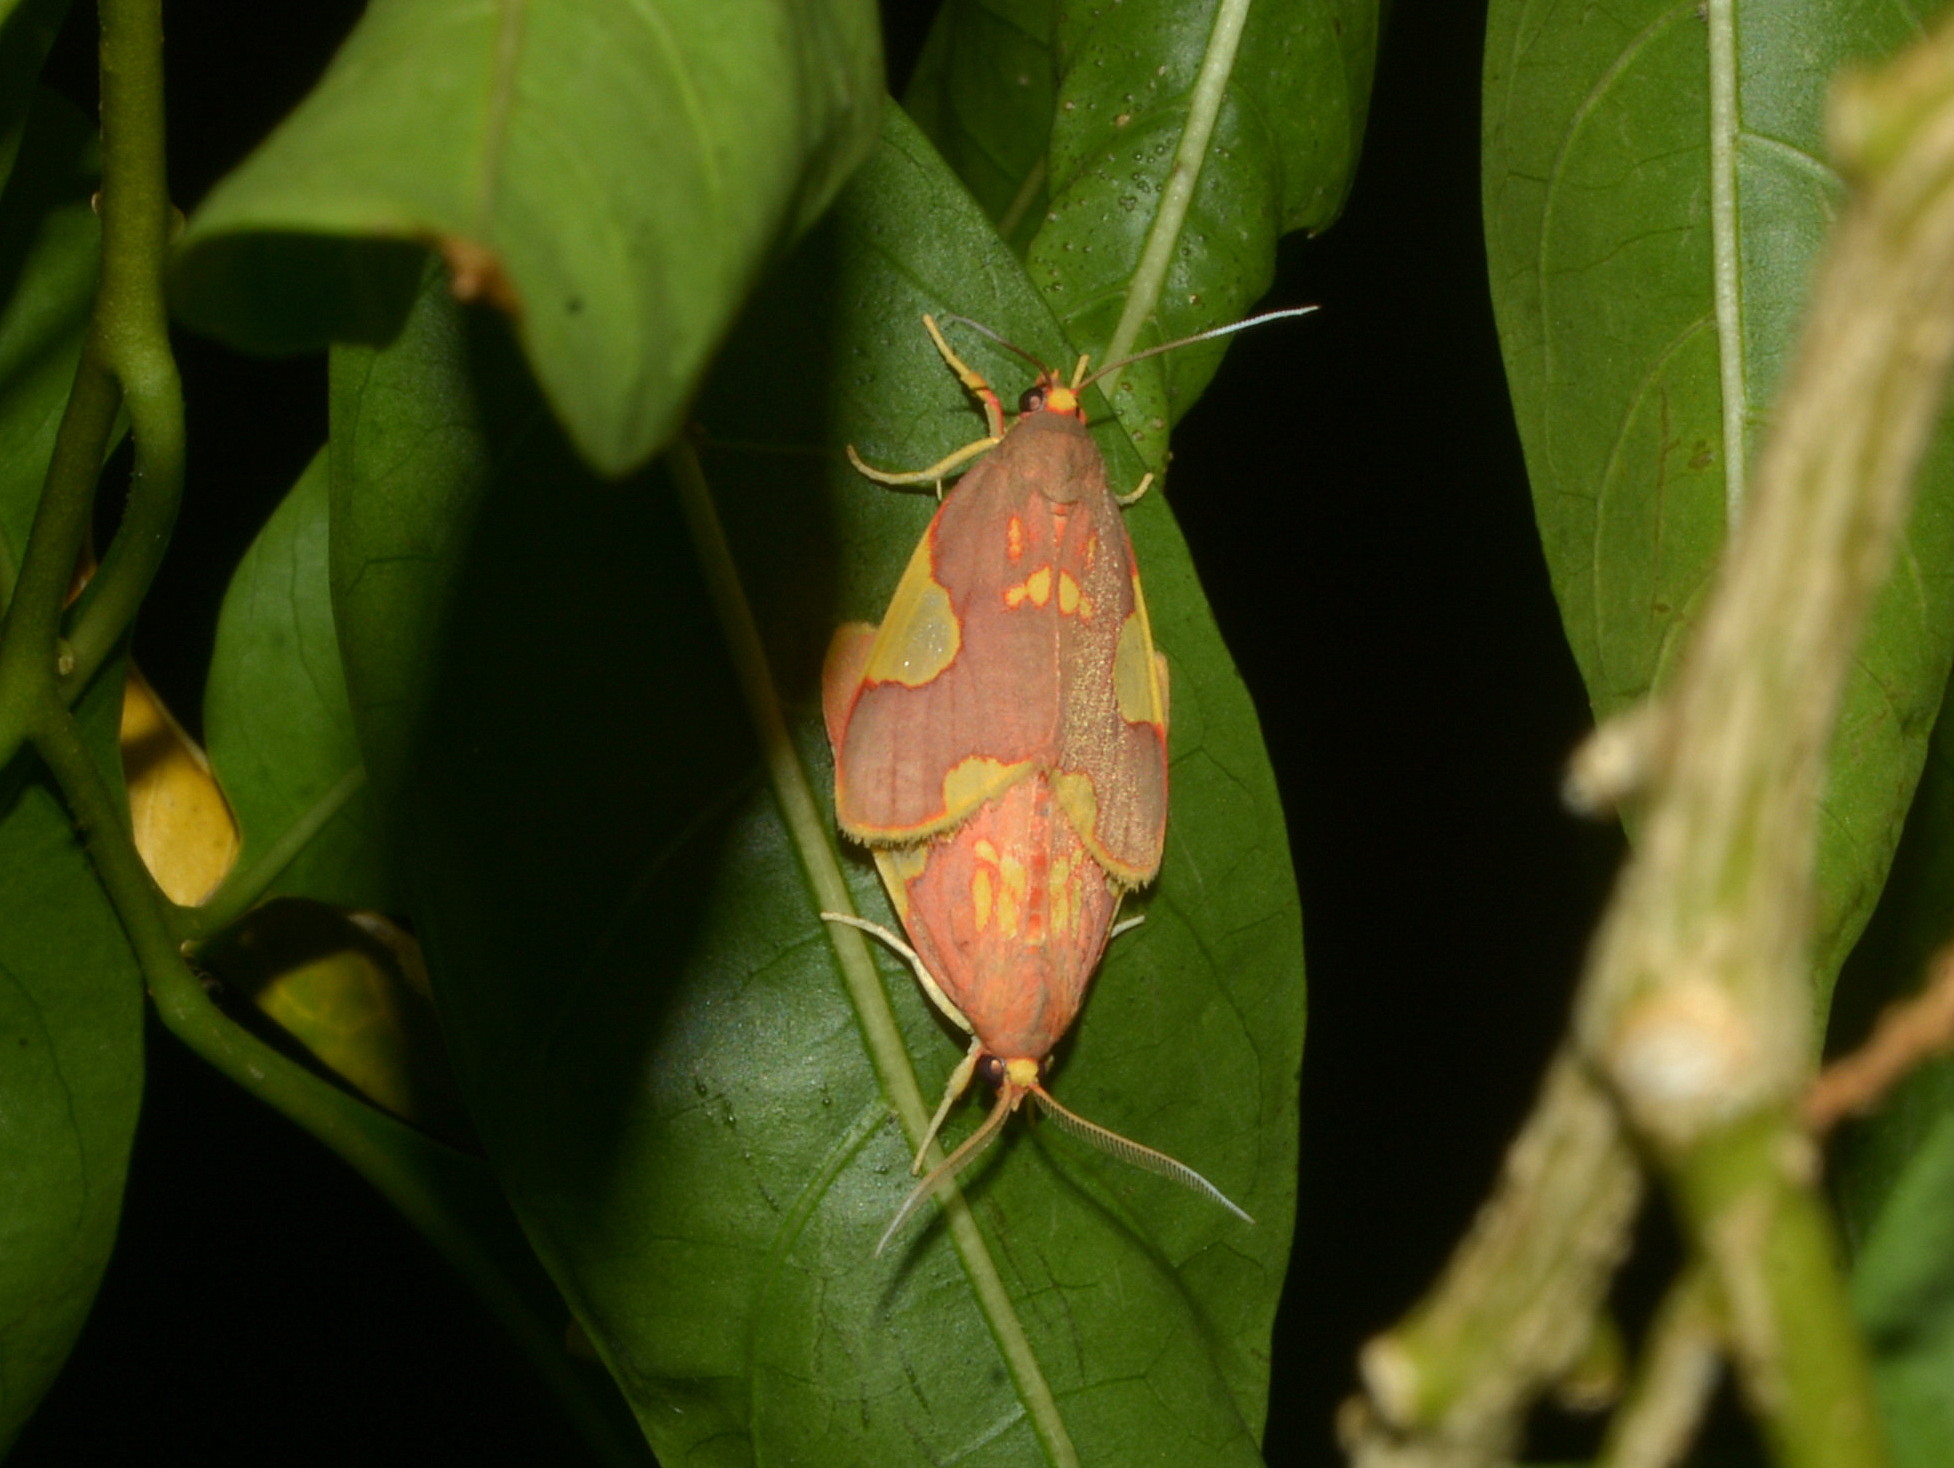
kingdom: Animalia
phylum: Arthropoda
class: Insecta
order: Lepidoptera
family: Erebidae
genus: Trichromia
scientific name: Trichromia
